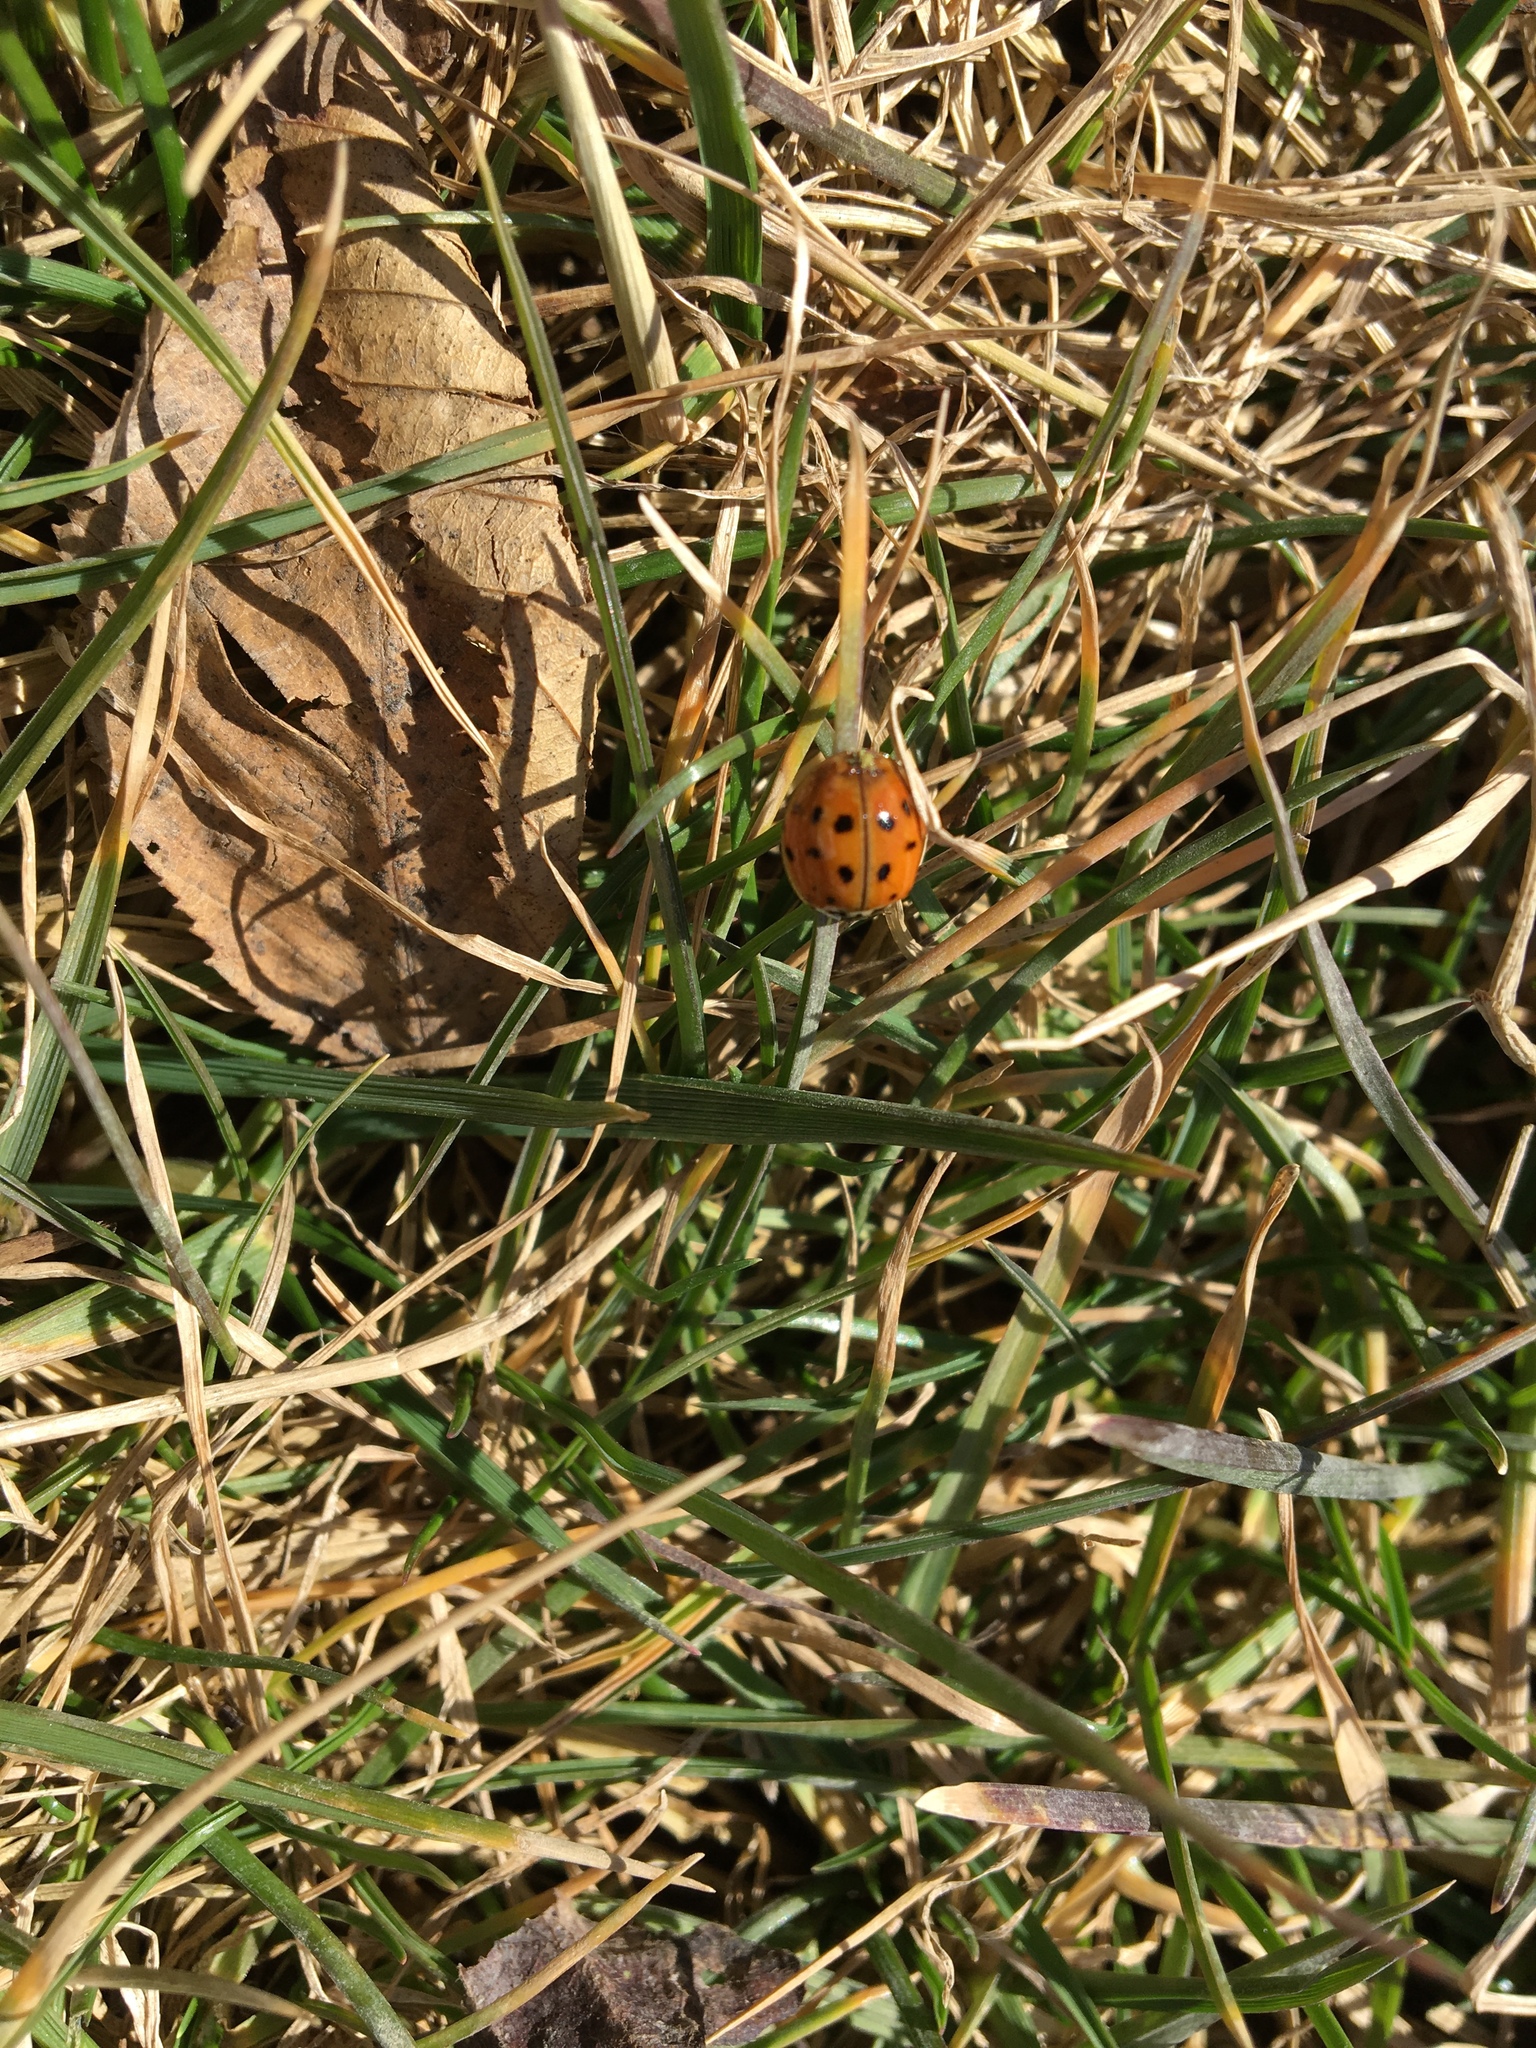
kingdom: Animalia
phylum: Arthropoda
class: Insecta
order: Coleoptera
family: Coccinellidae
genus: Harmonia
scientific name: Harmonia axyridis
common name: Harlequin ladybird
